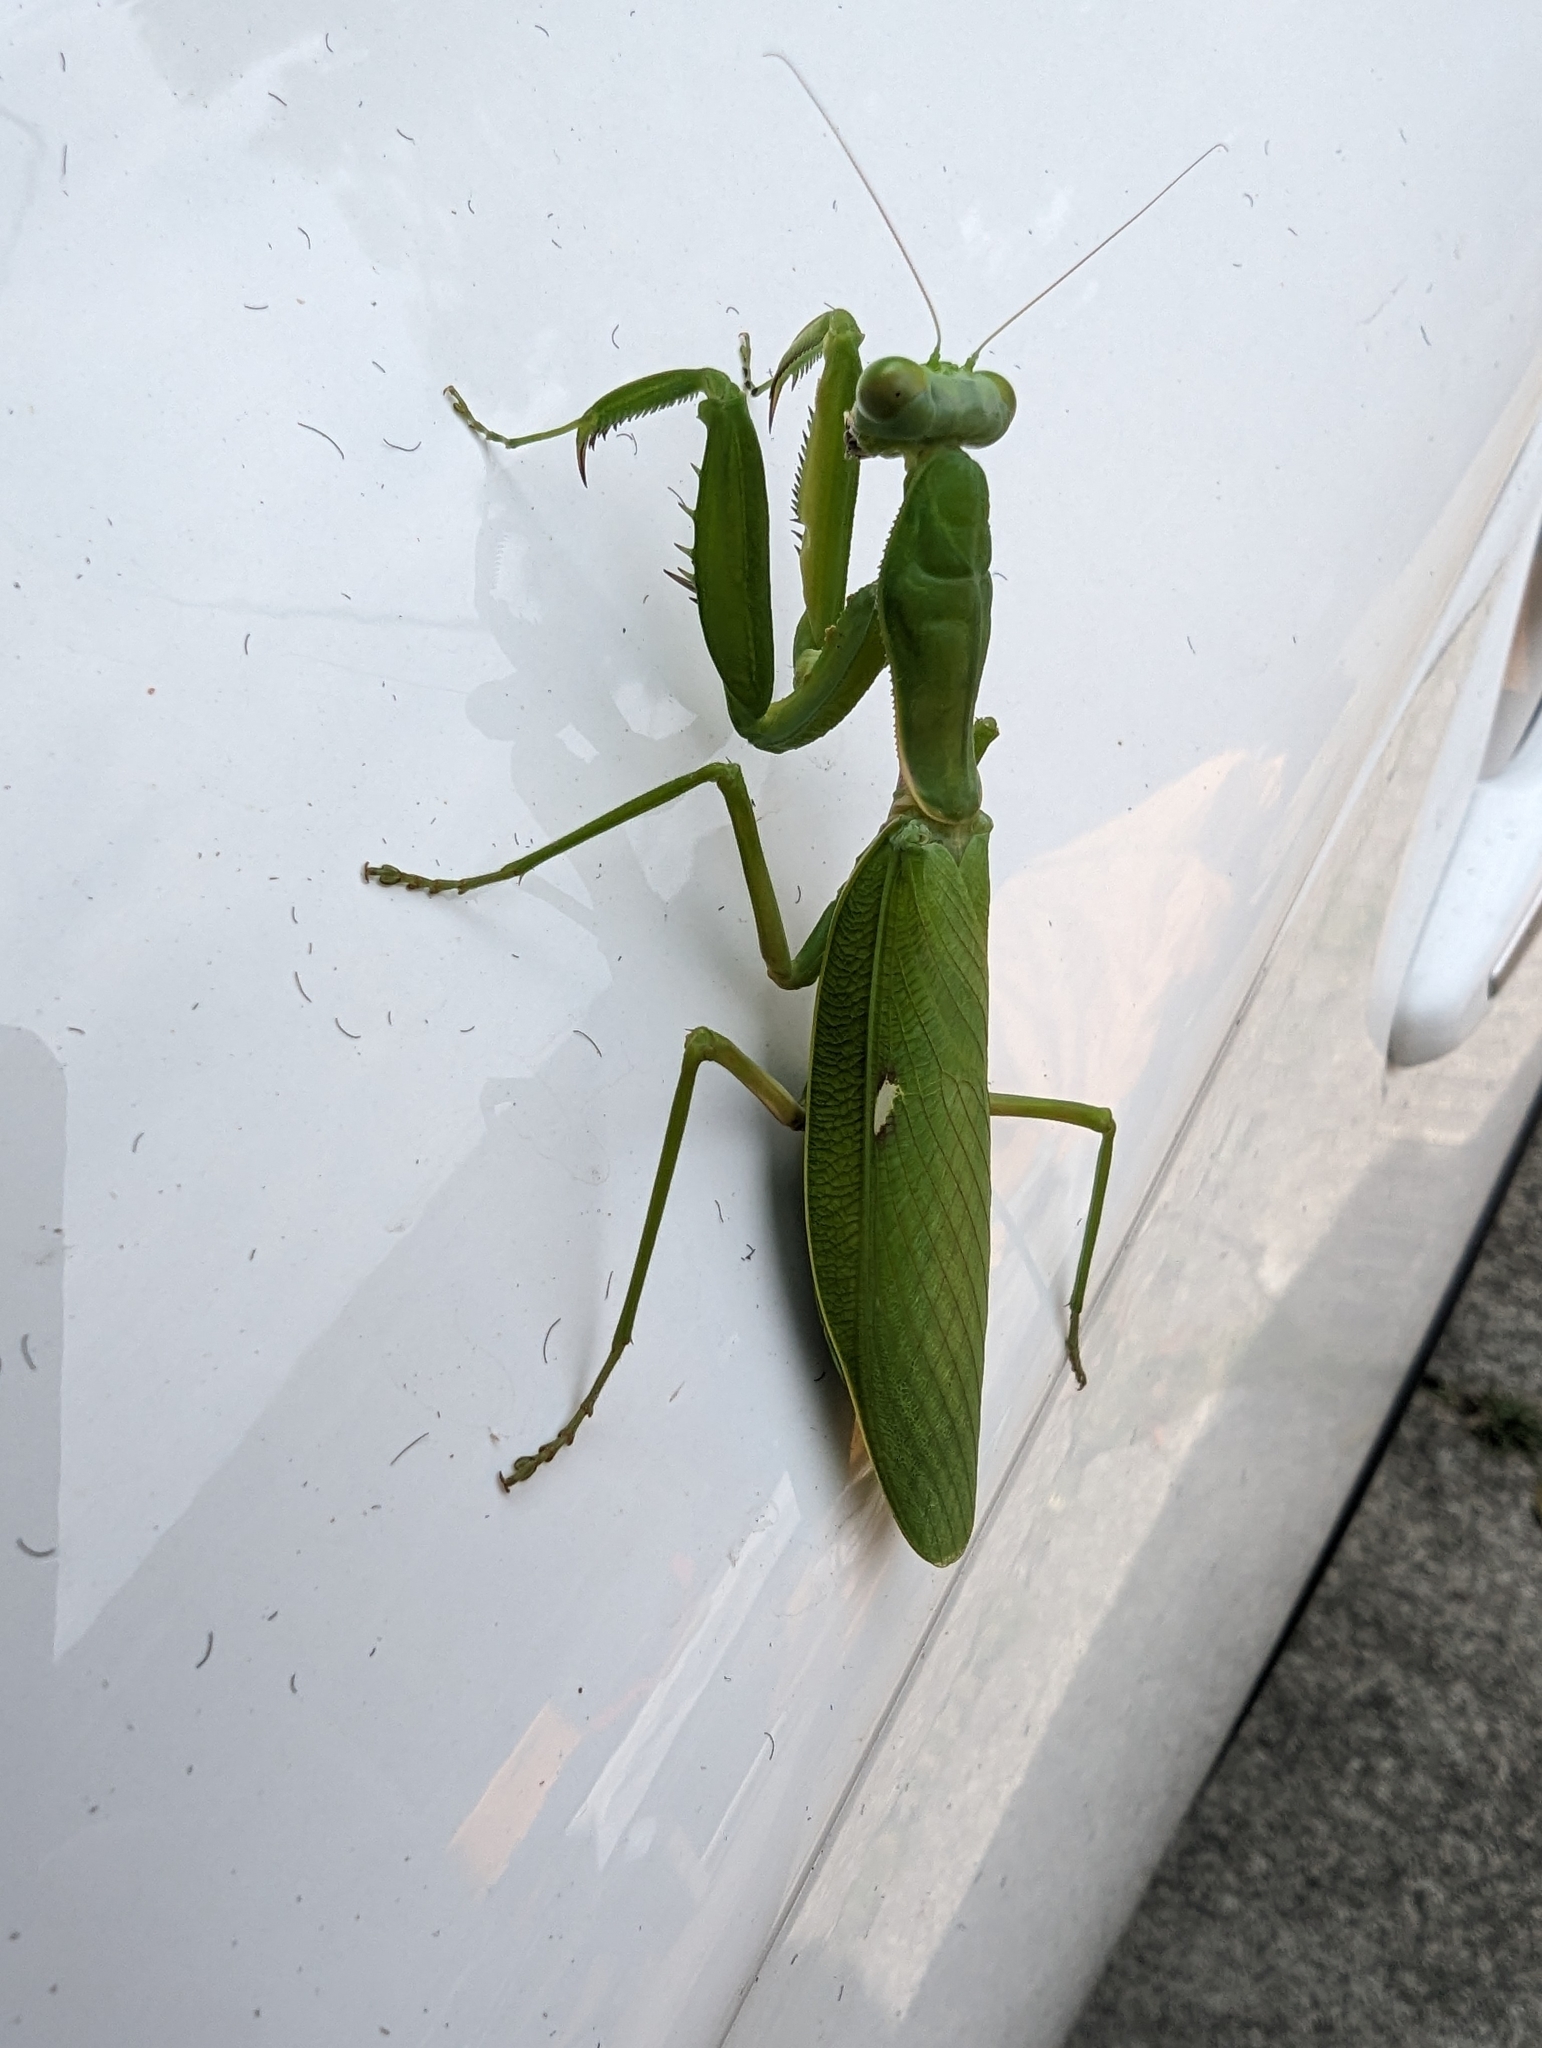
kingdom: Animalia
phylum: Arthropoda
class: Insecta
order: Mantodea
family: Mantidae
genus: Hierodula
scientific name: Hierodula patellifera
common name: Asian mantis
